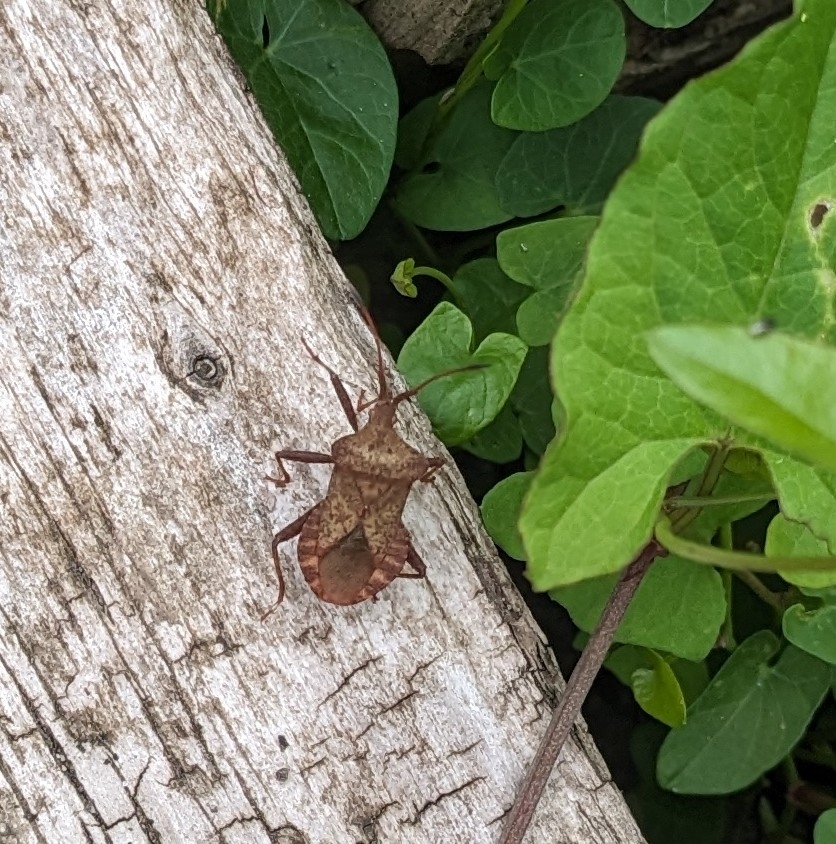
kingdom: Animalia
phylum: Arthropoda
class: Insecta
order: Hemiptera
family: Coreidae
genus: Coreus
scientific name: Coreus marginatus
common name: Dock bug
